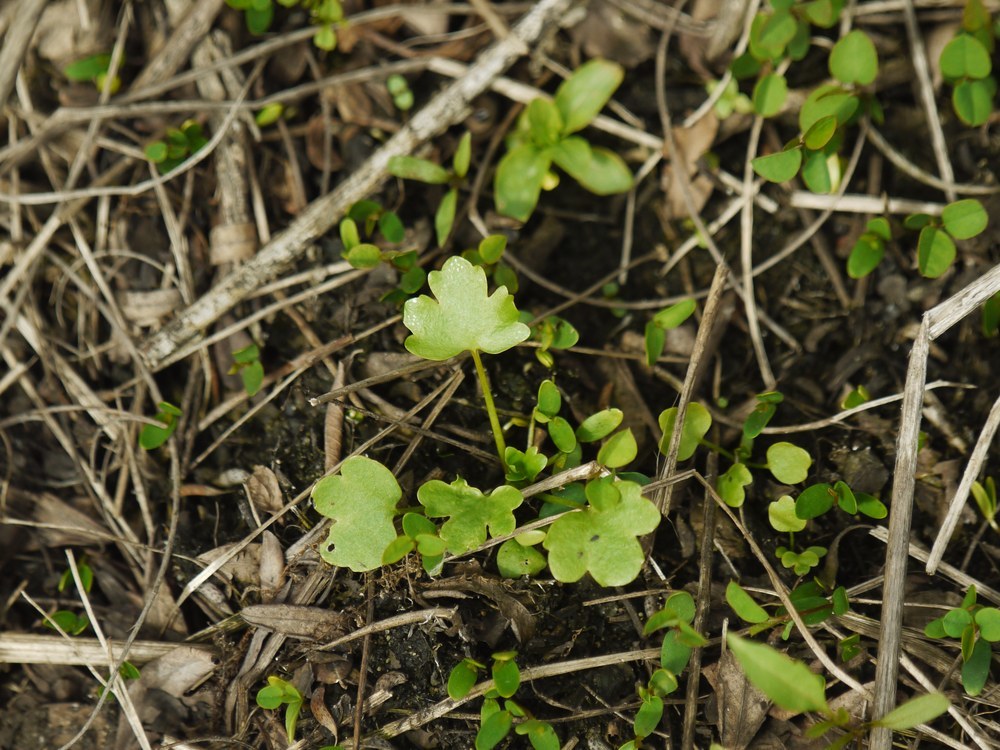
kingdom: Plantae
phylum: Tracheophyta
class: Magnoliopsida
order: Ranunculales
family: Papaveraceae
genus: Chelidonium
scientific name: Chelidonium majus
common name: Greater celandine
